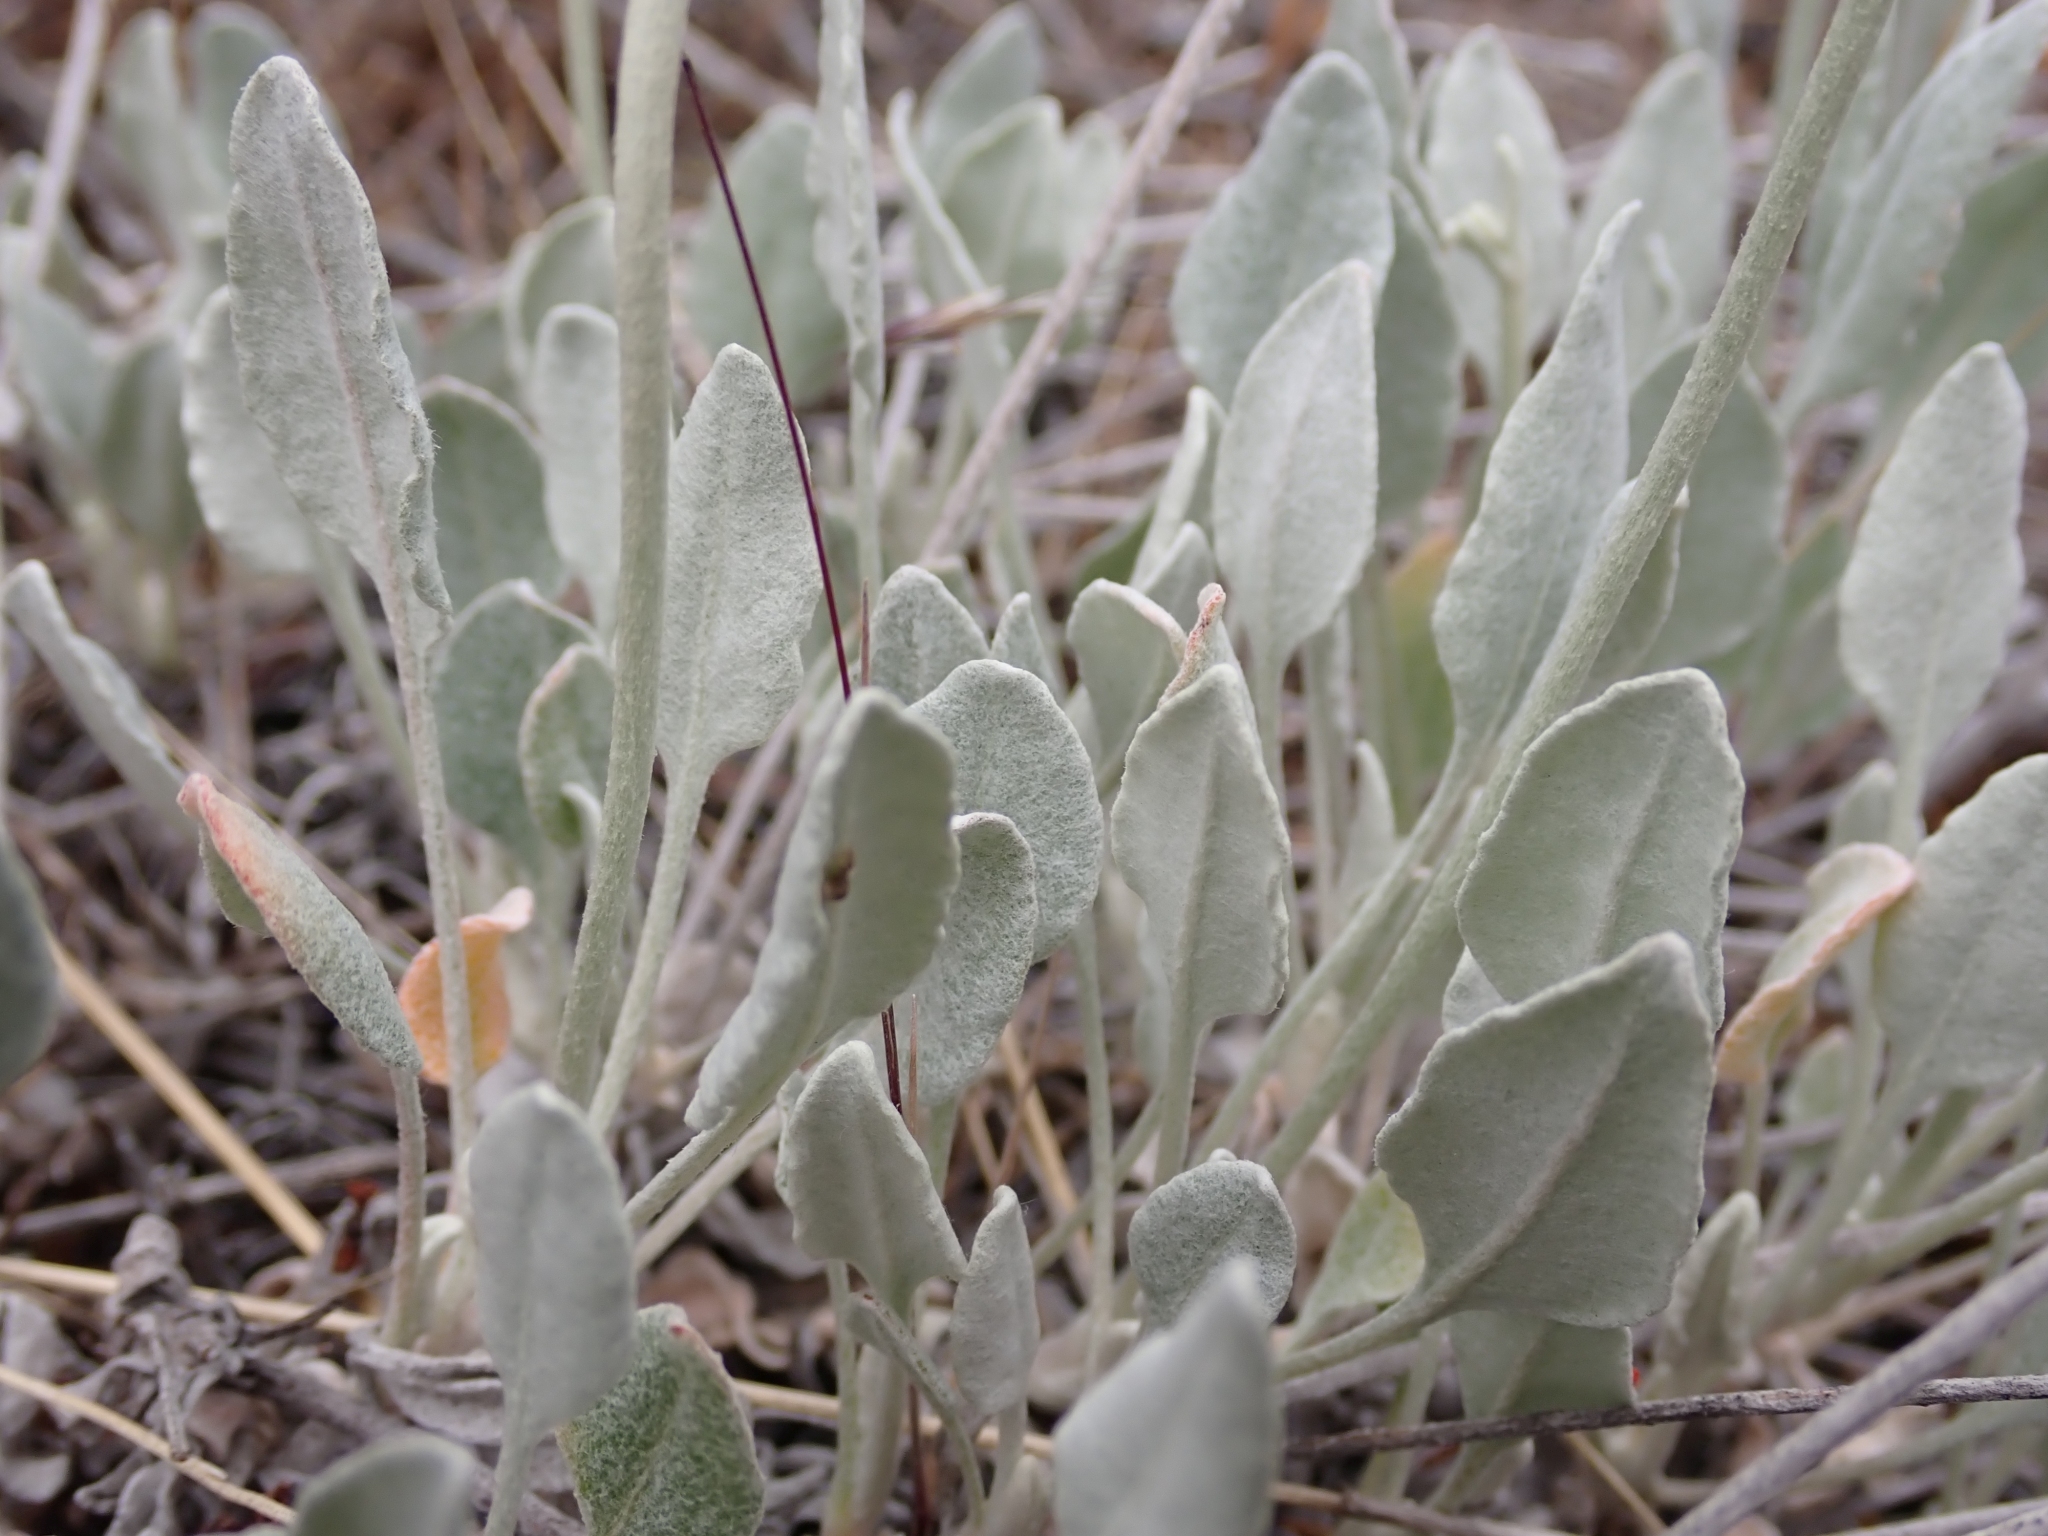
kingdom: Plantae
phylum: Tracheophyta
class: Magnoliopsida
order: Caryophyllales
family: Polygonaceae
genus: Eriogonum
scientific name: Eriogonum niveum
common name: Snow wild buckwheat
